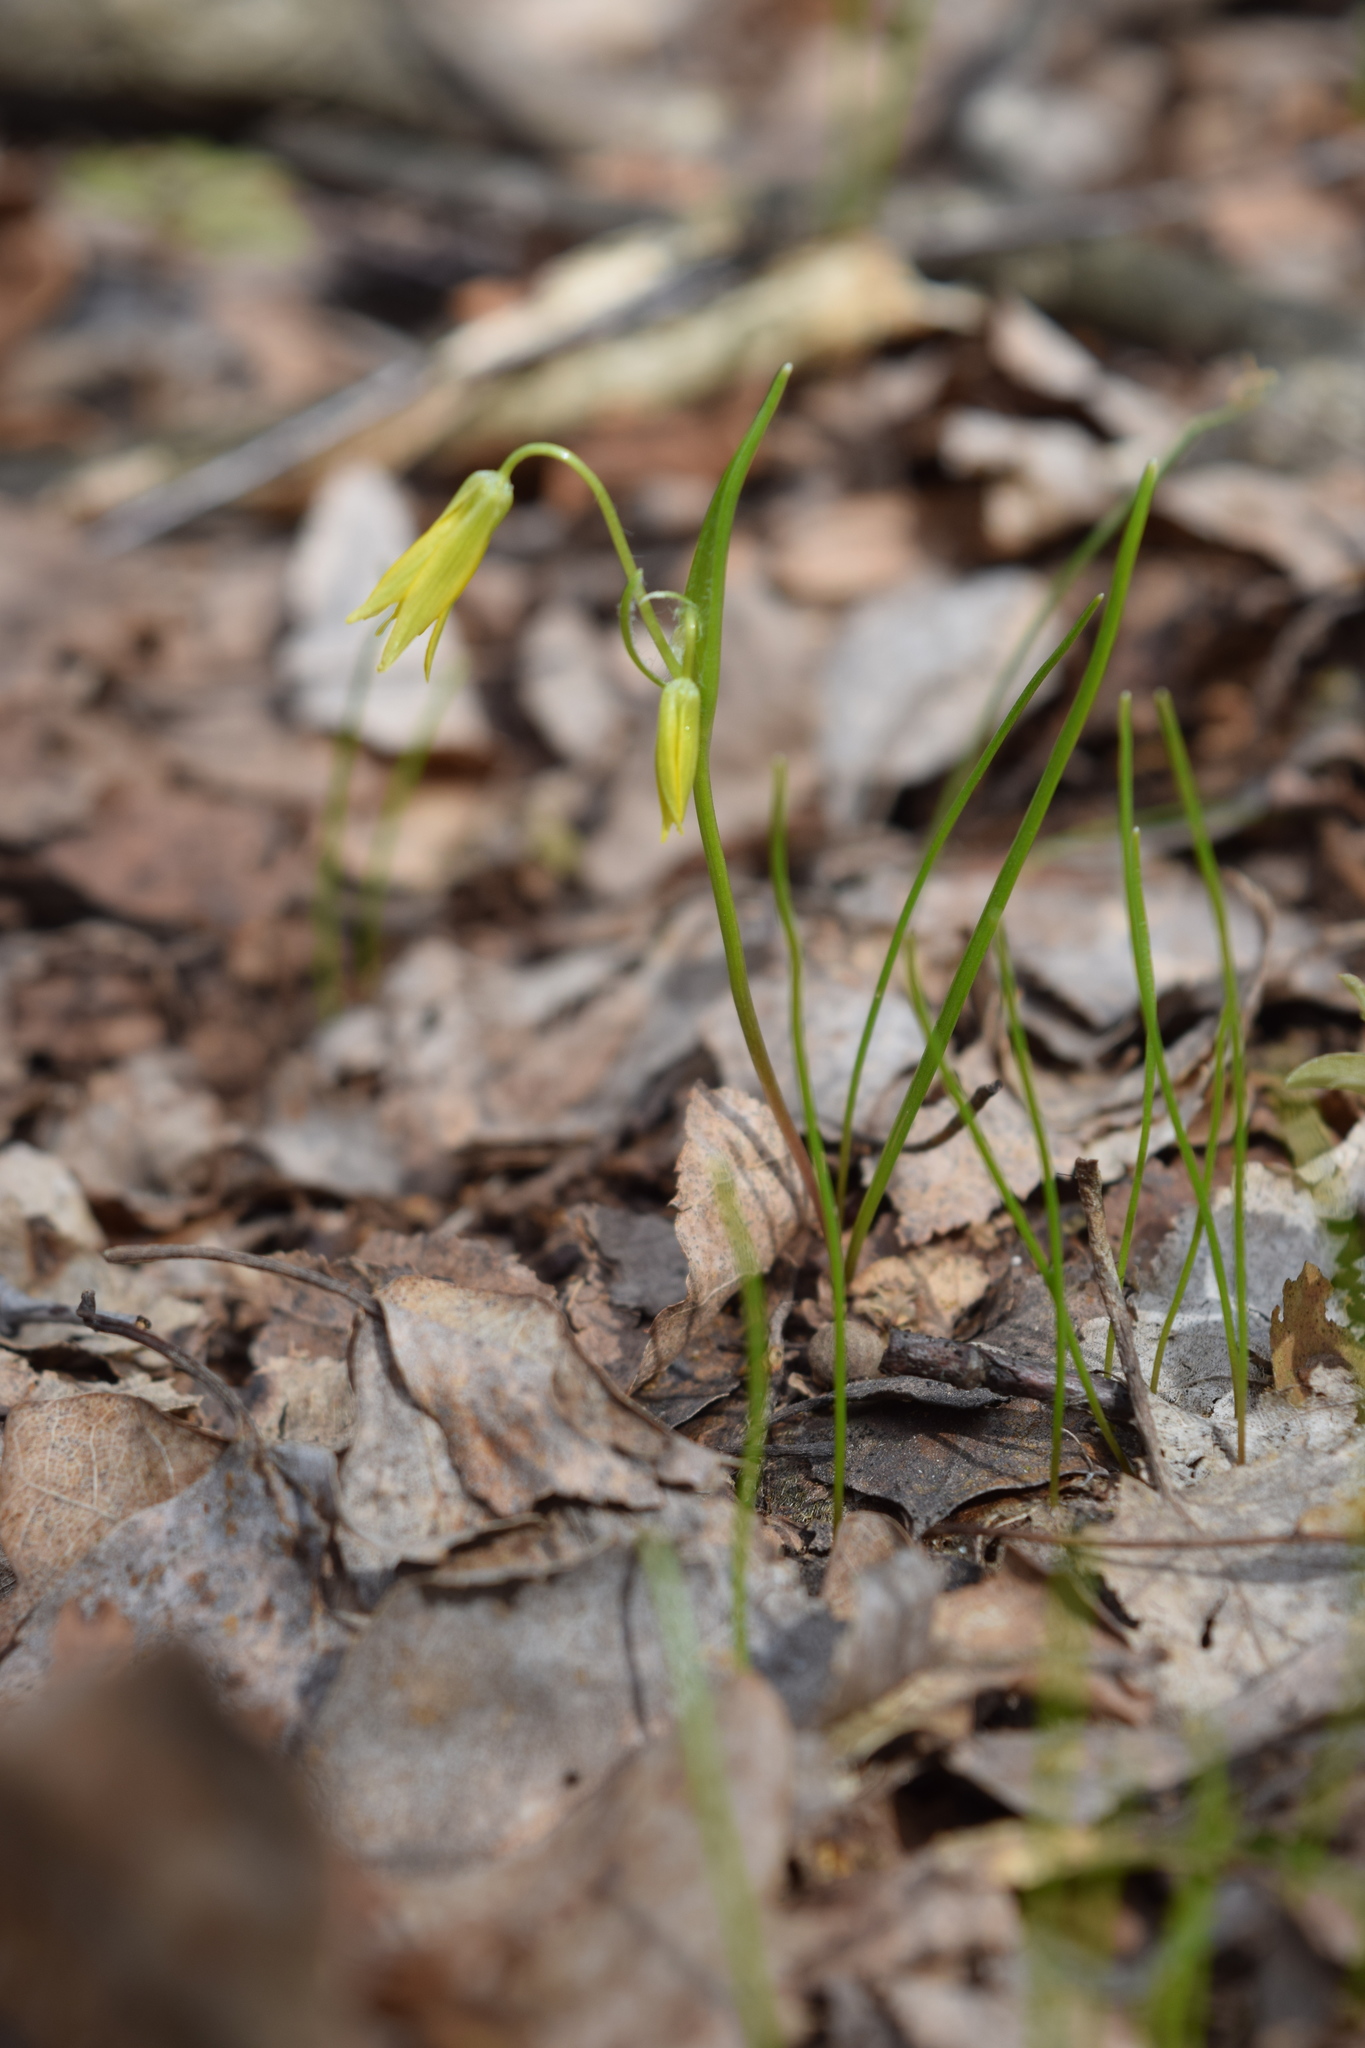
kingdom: Plantae
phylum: Tracheophyta
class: Liliopsida
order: Liliales
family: Liliaceae
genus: Gagea
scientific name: Gagea minima
